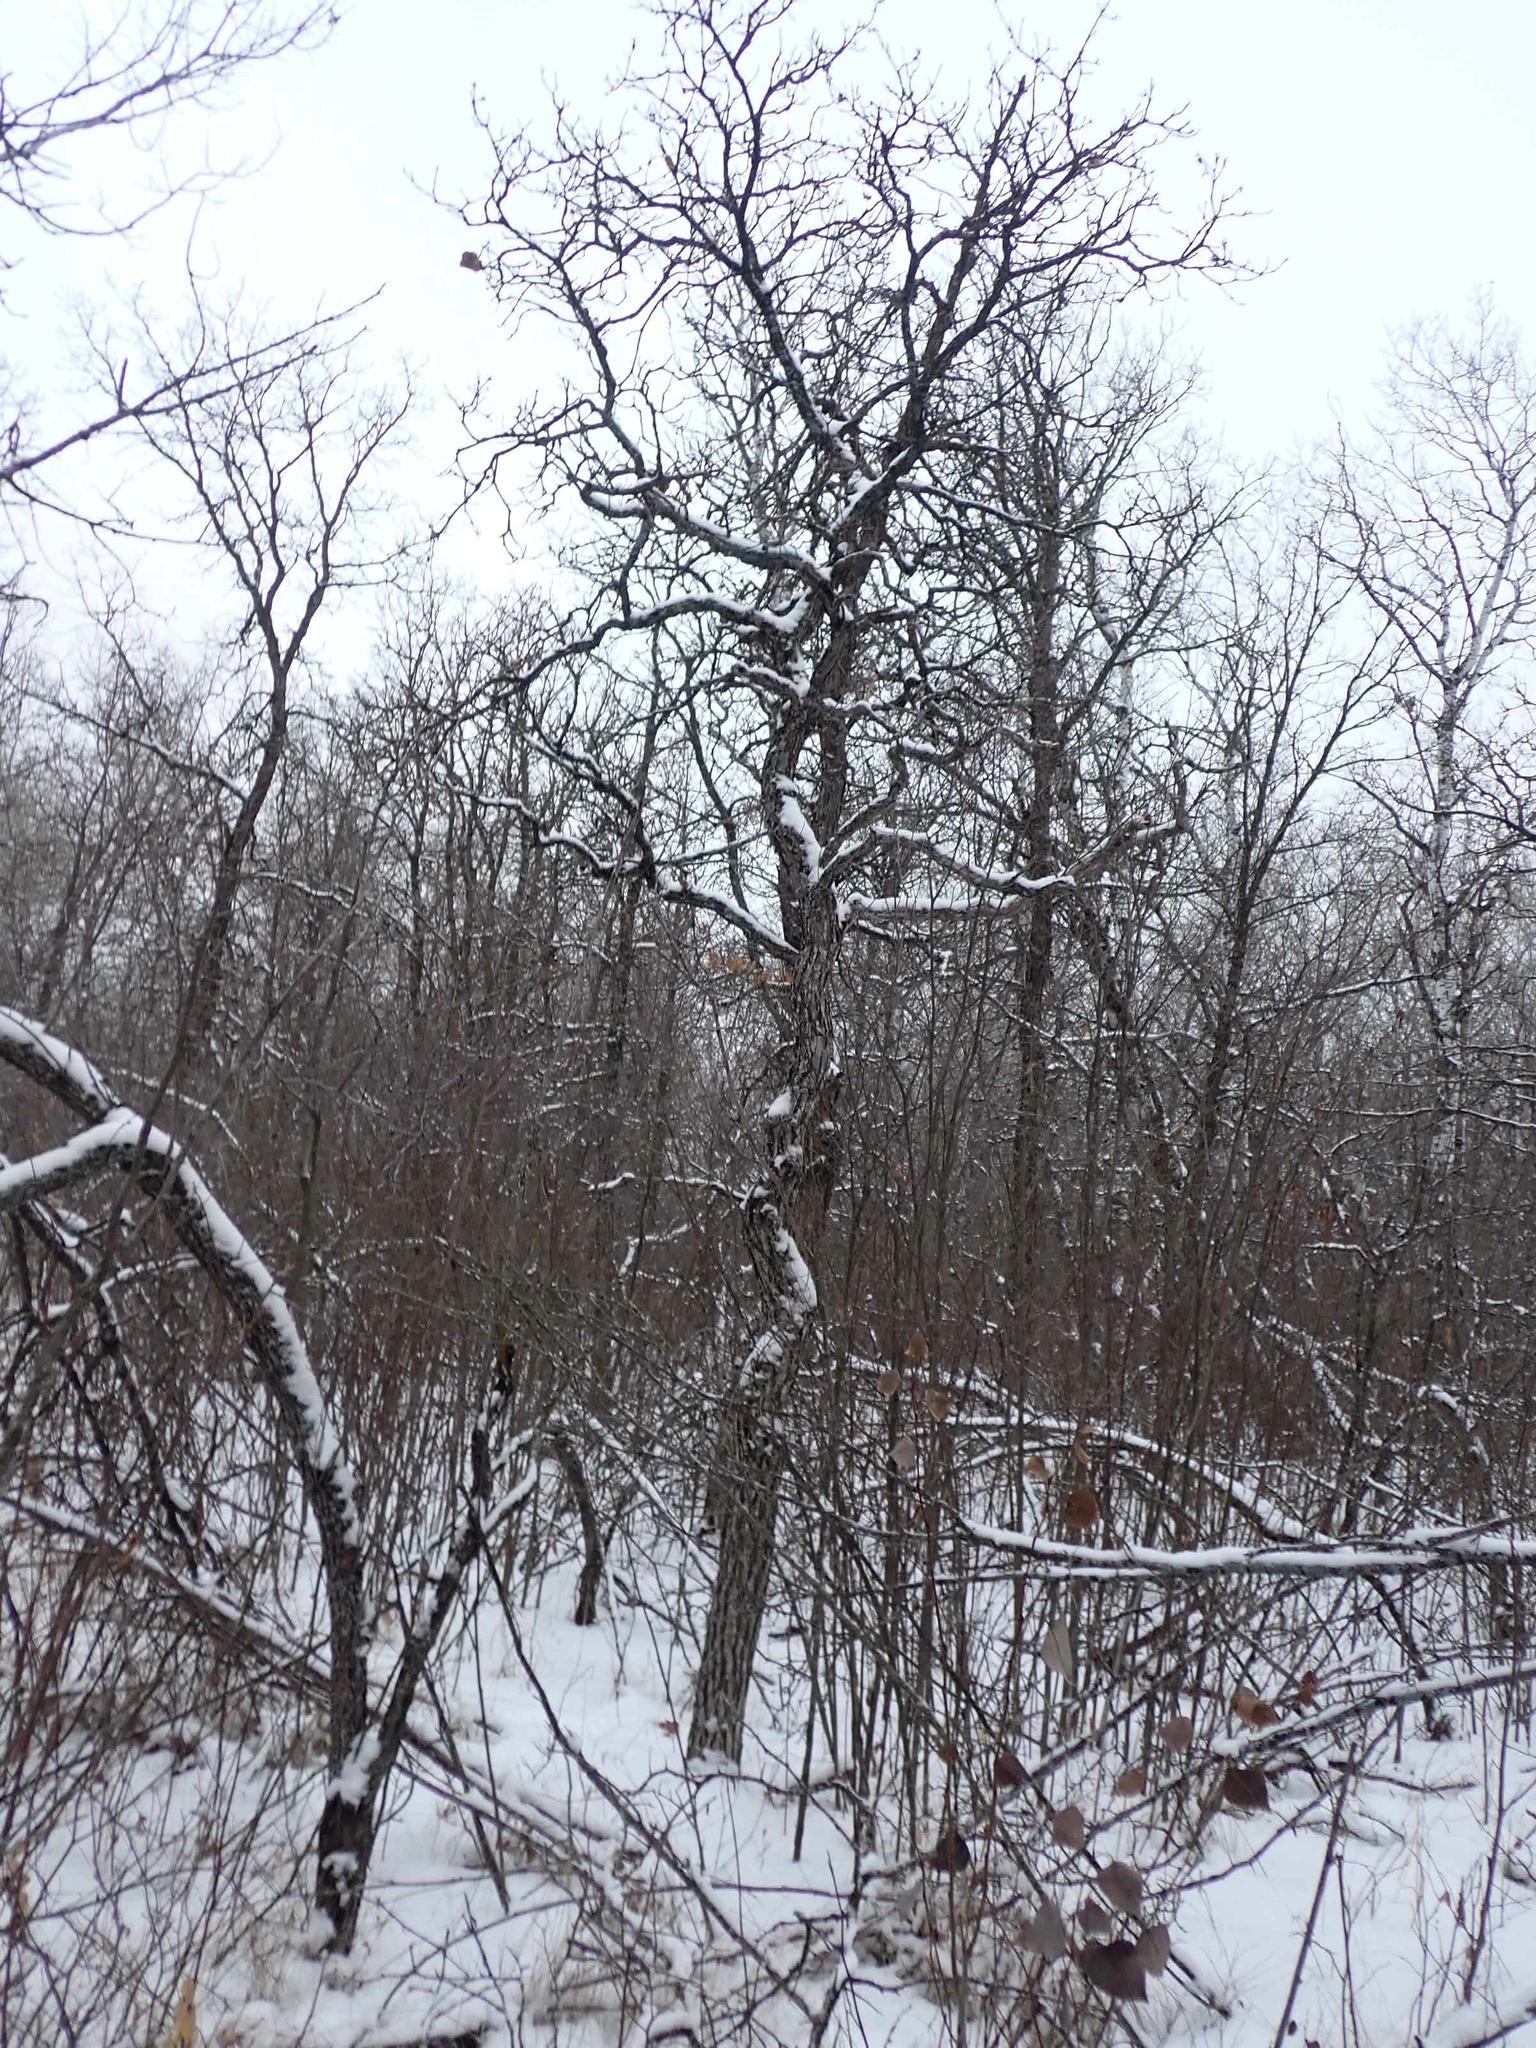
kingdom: Plantae
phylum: Tracheophyta
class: Magnoliopsida
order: Fagales
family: Fagaceae
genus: Quercus
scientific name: Quercus macrocarpa
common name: Bur oak
